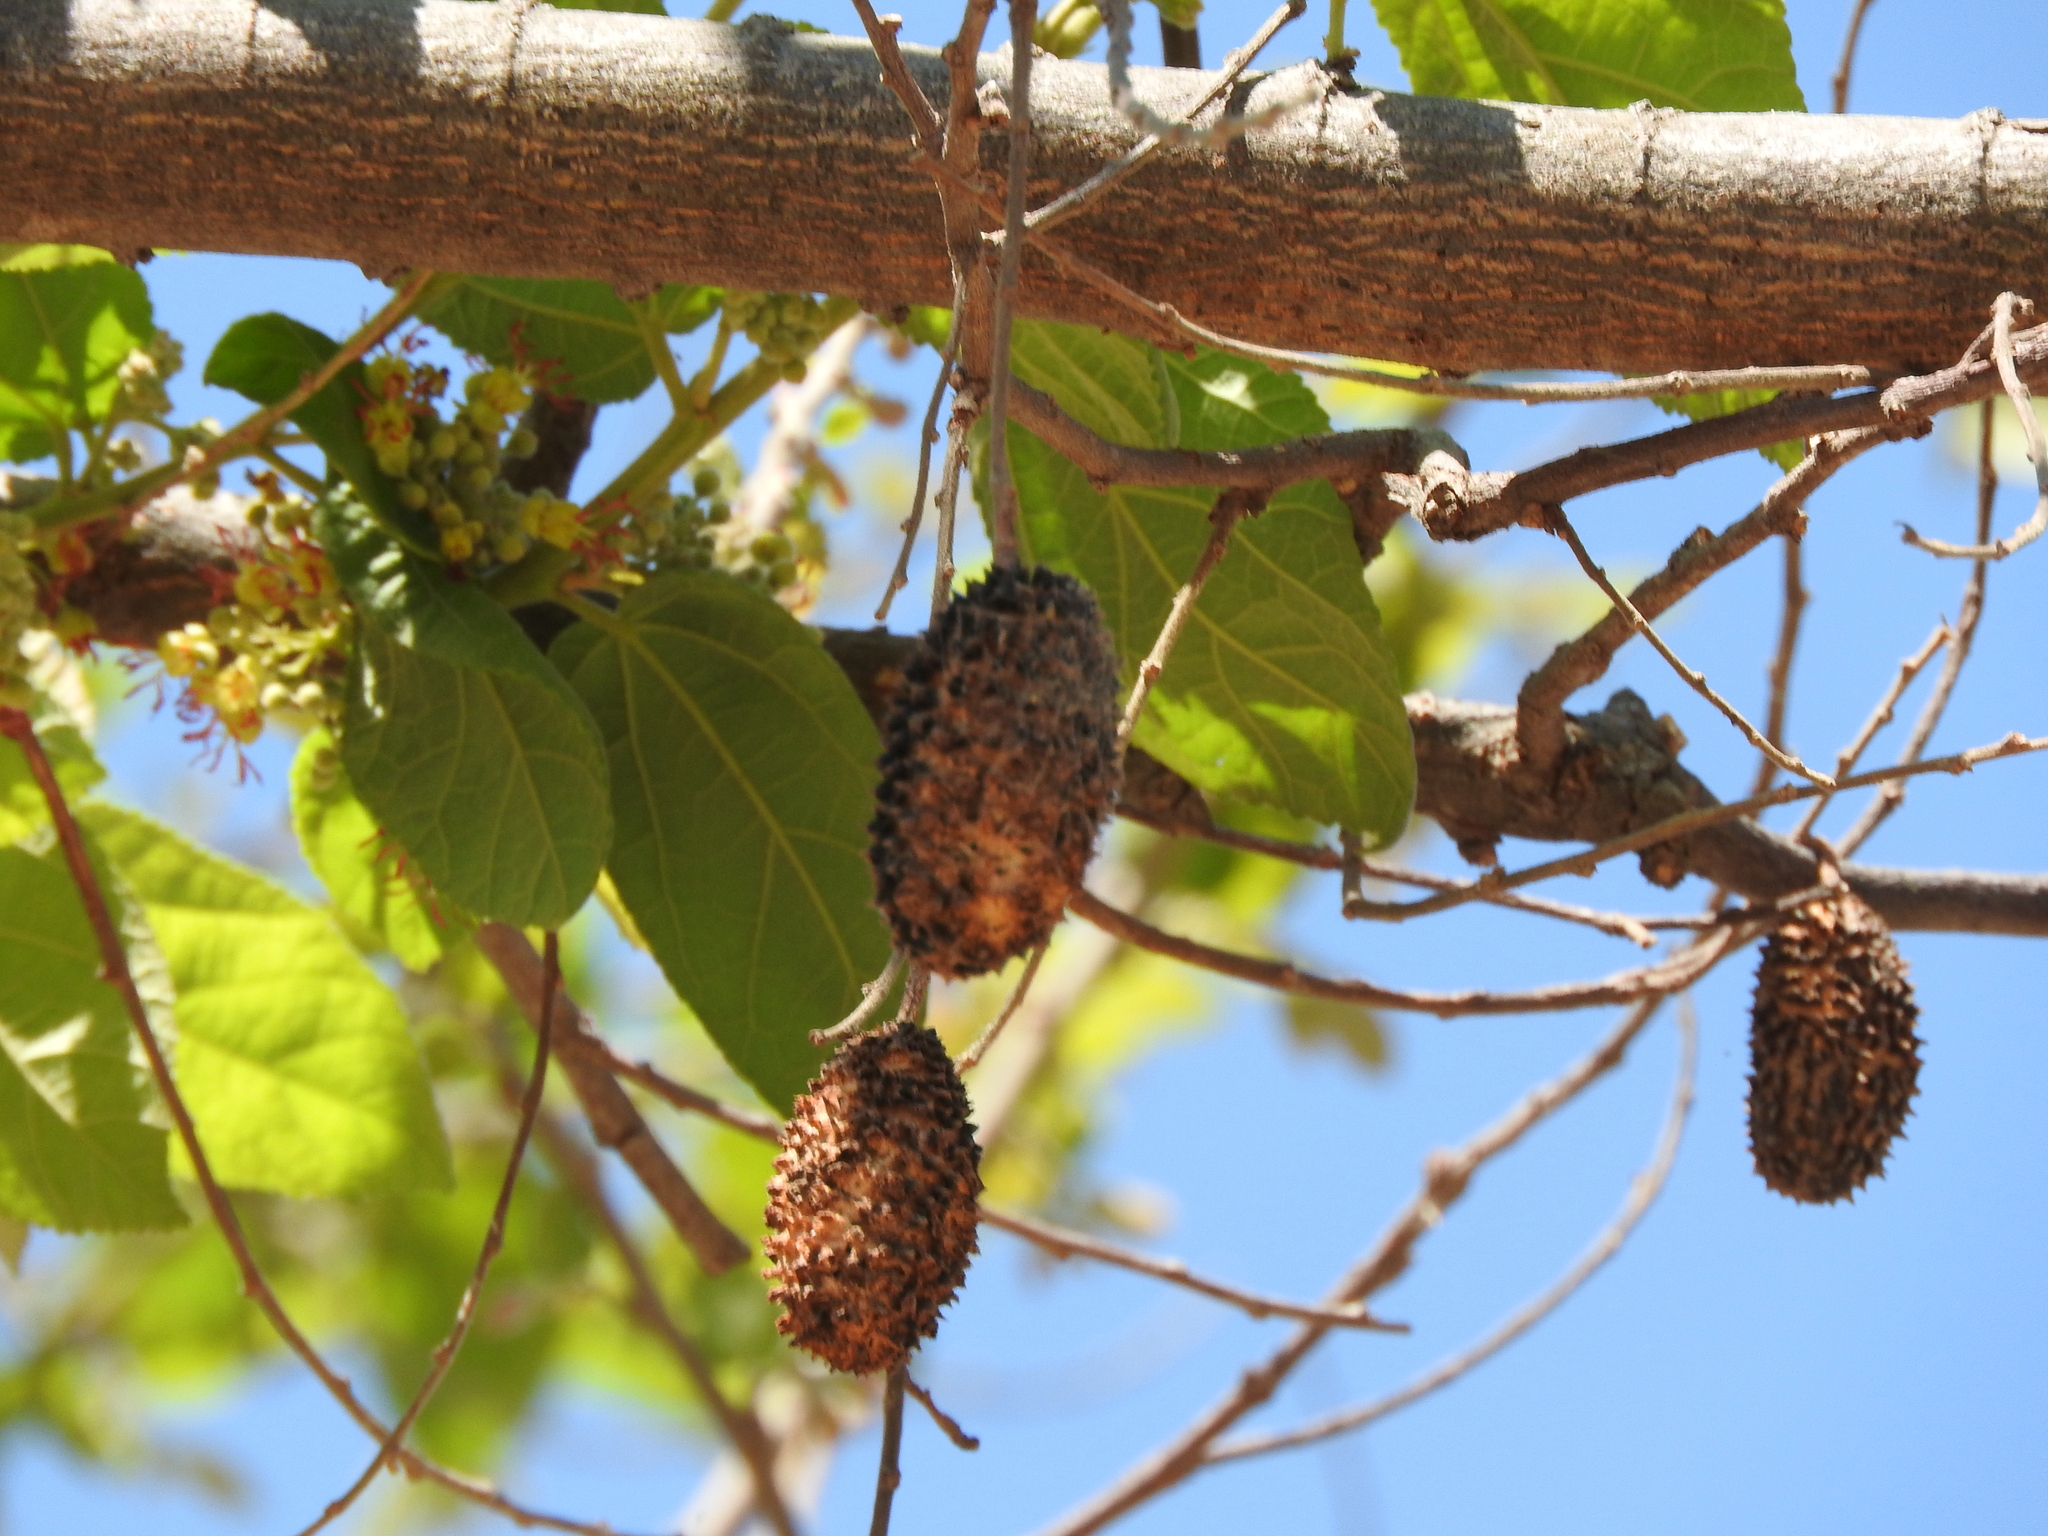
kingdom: Plantae
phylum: Tracheophyta
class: Magnoliopsida
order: Malvales
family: Malvaceae
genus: Guazuma
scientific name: Guazuma ulmifolia
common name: Bastard-cedar
